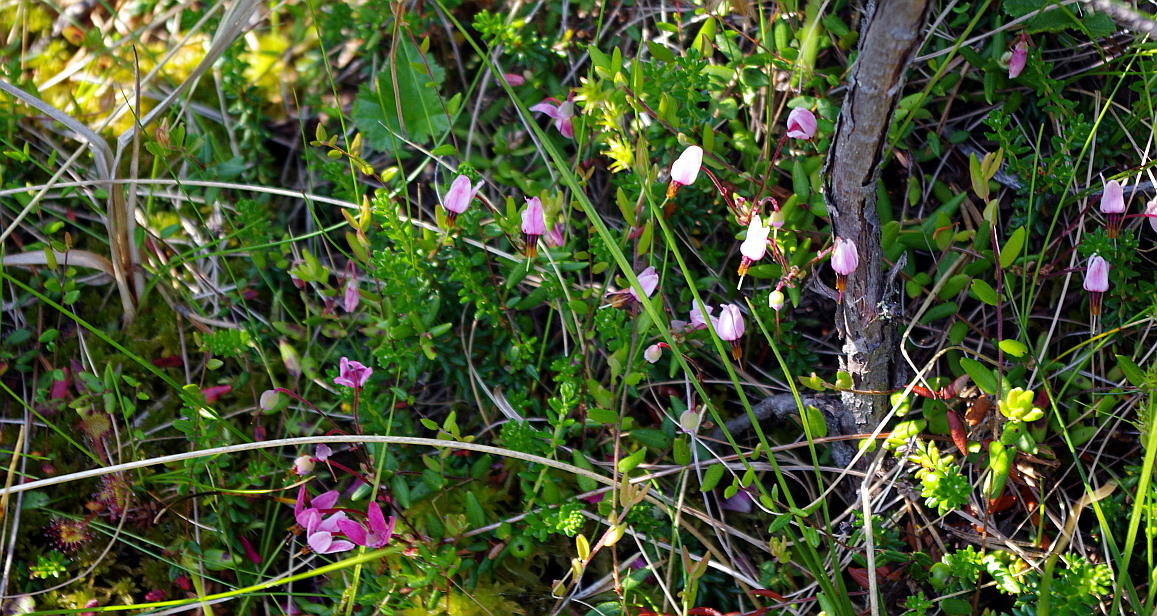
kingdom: Plantae
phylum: Tracheophyta
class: Magnoliopsida
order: Ericales
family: Ericaceae
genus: Vaccinium
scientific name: Vaccinium oxycoccos
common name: Cranberry
